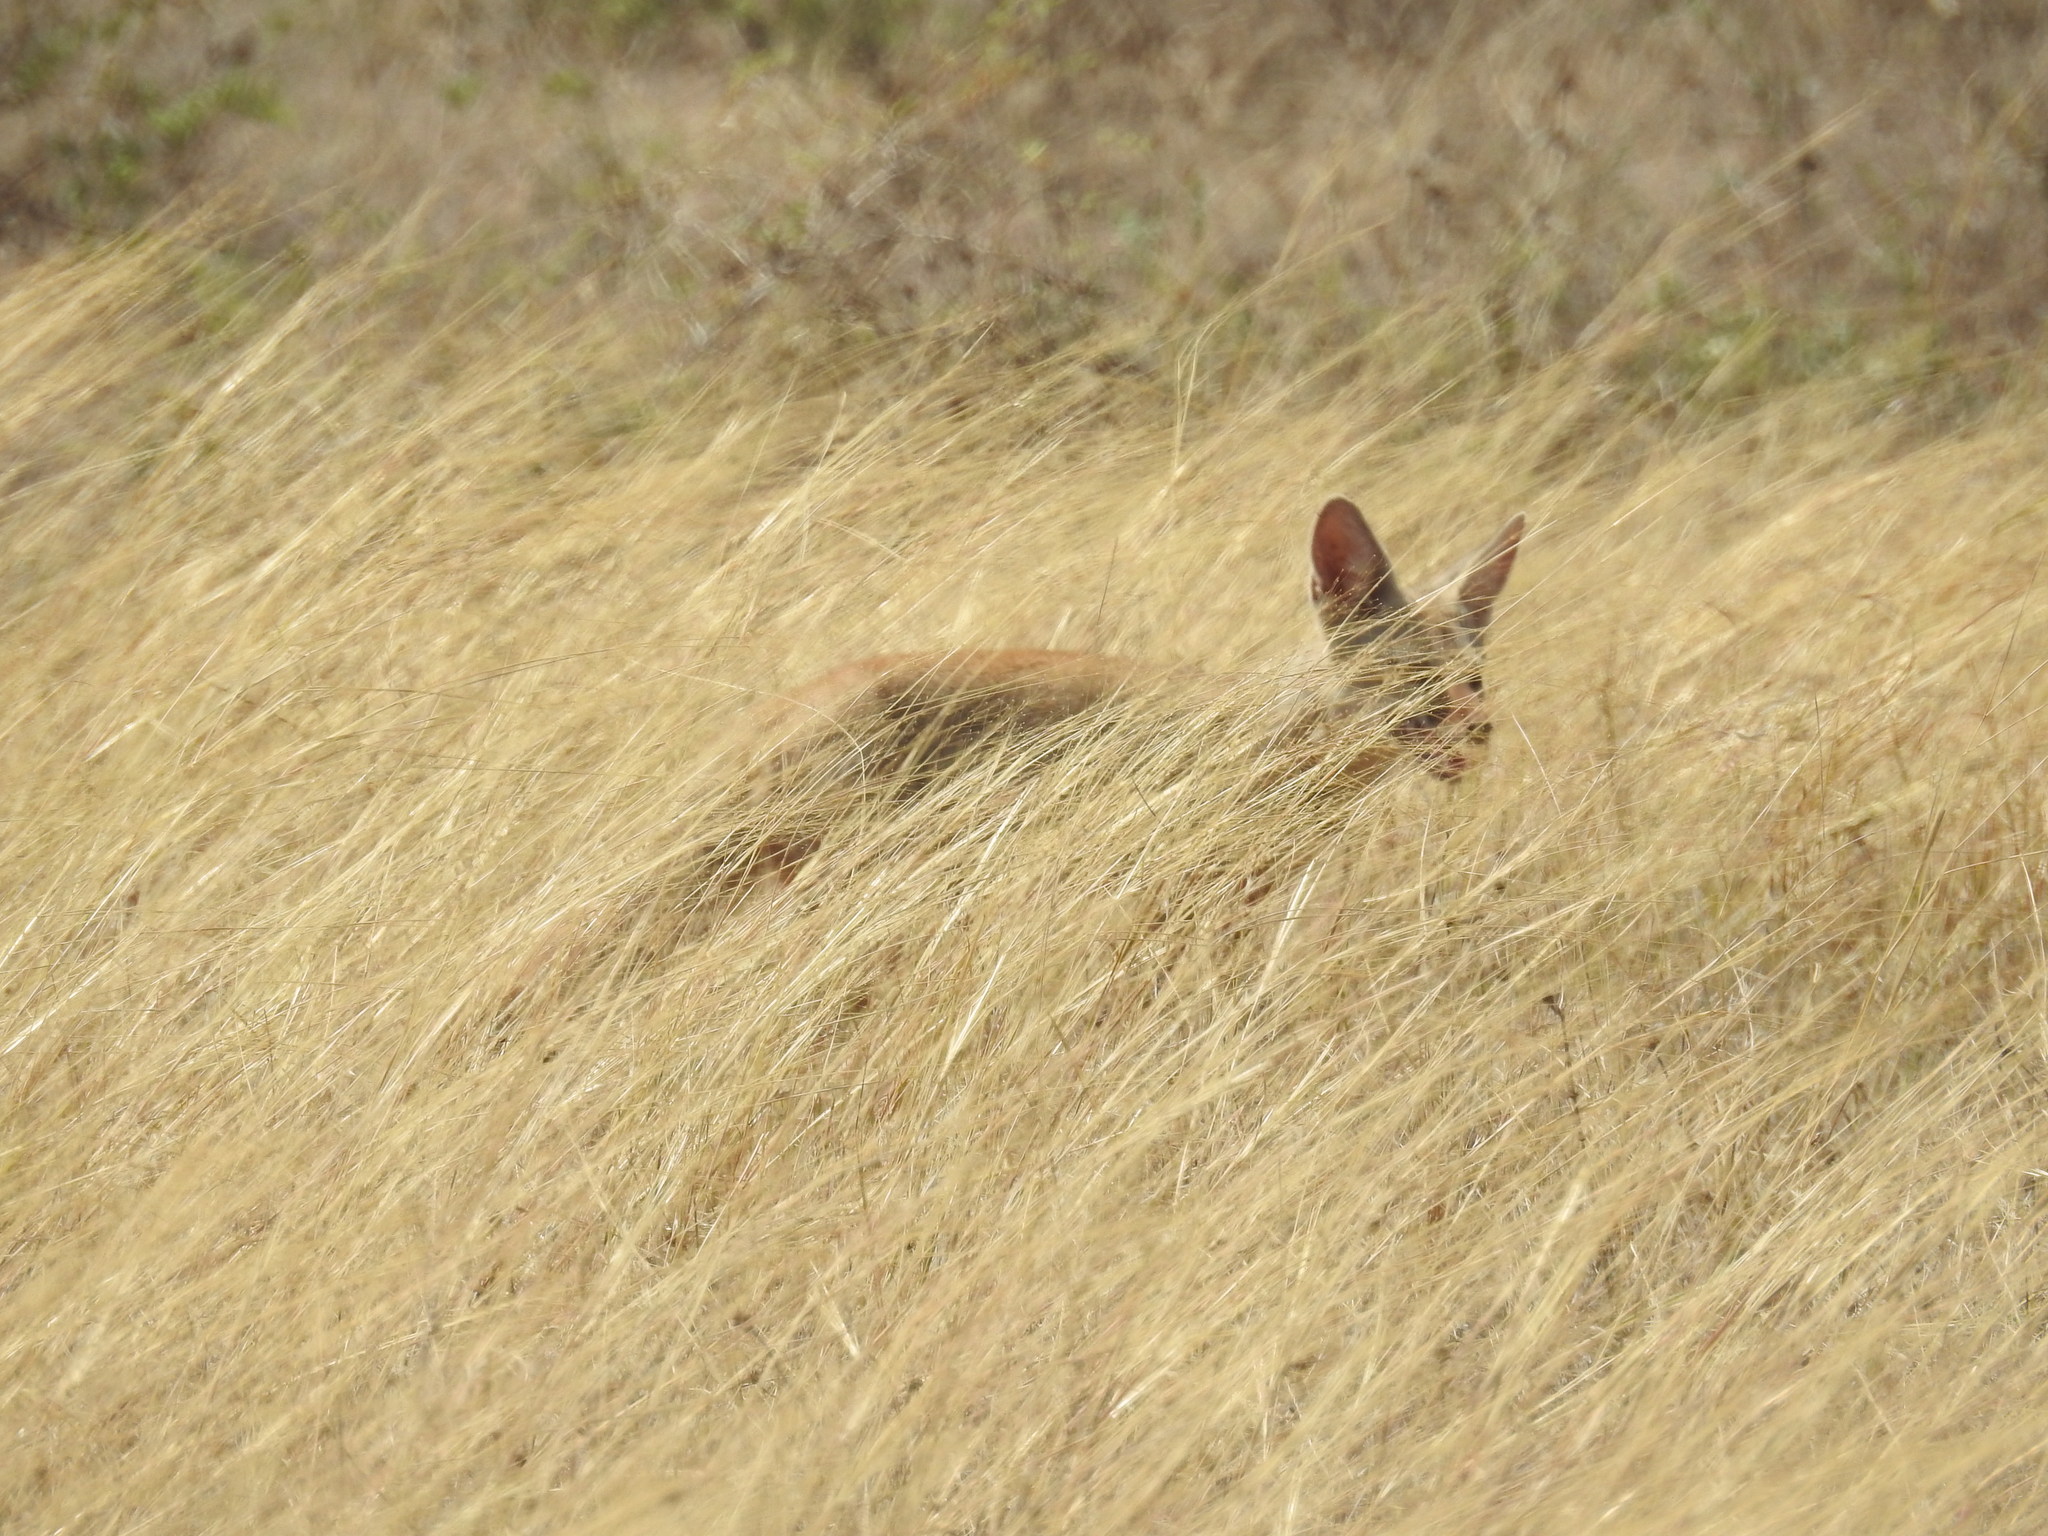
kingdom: Animalia
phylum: Chordata
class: Mammalia
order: Carnivora
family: Canidae
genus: Vulpes
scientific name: Vulpes bengalensis
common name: Bengal fox
